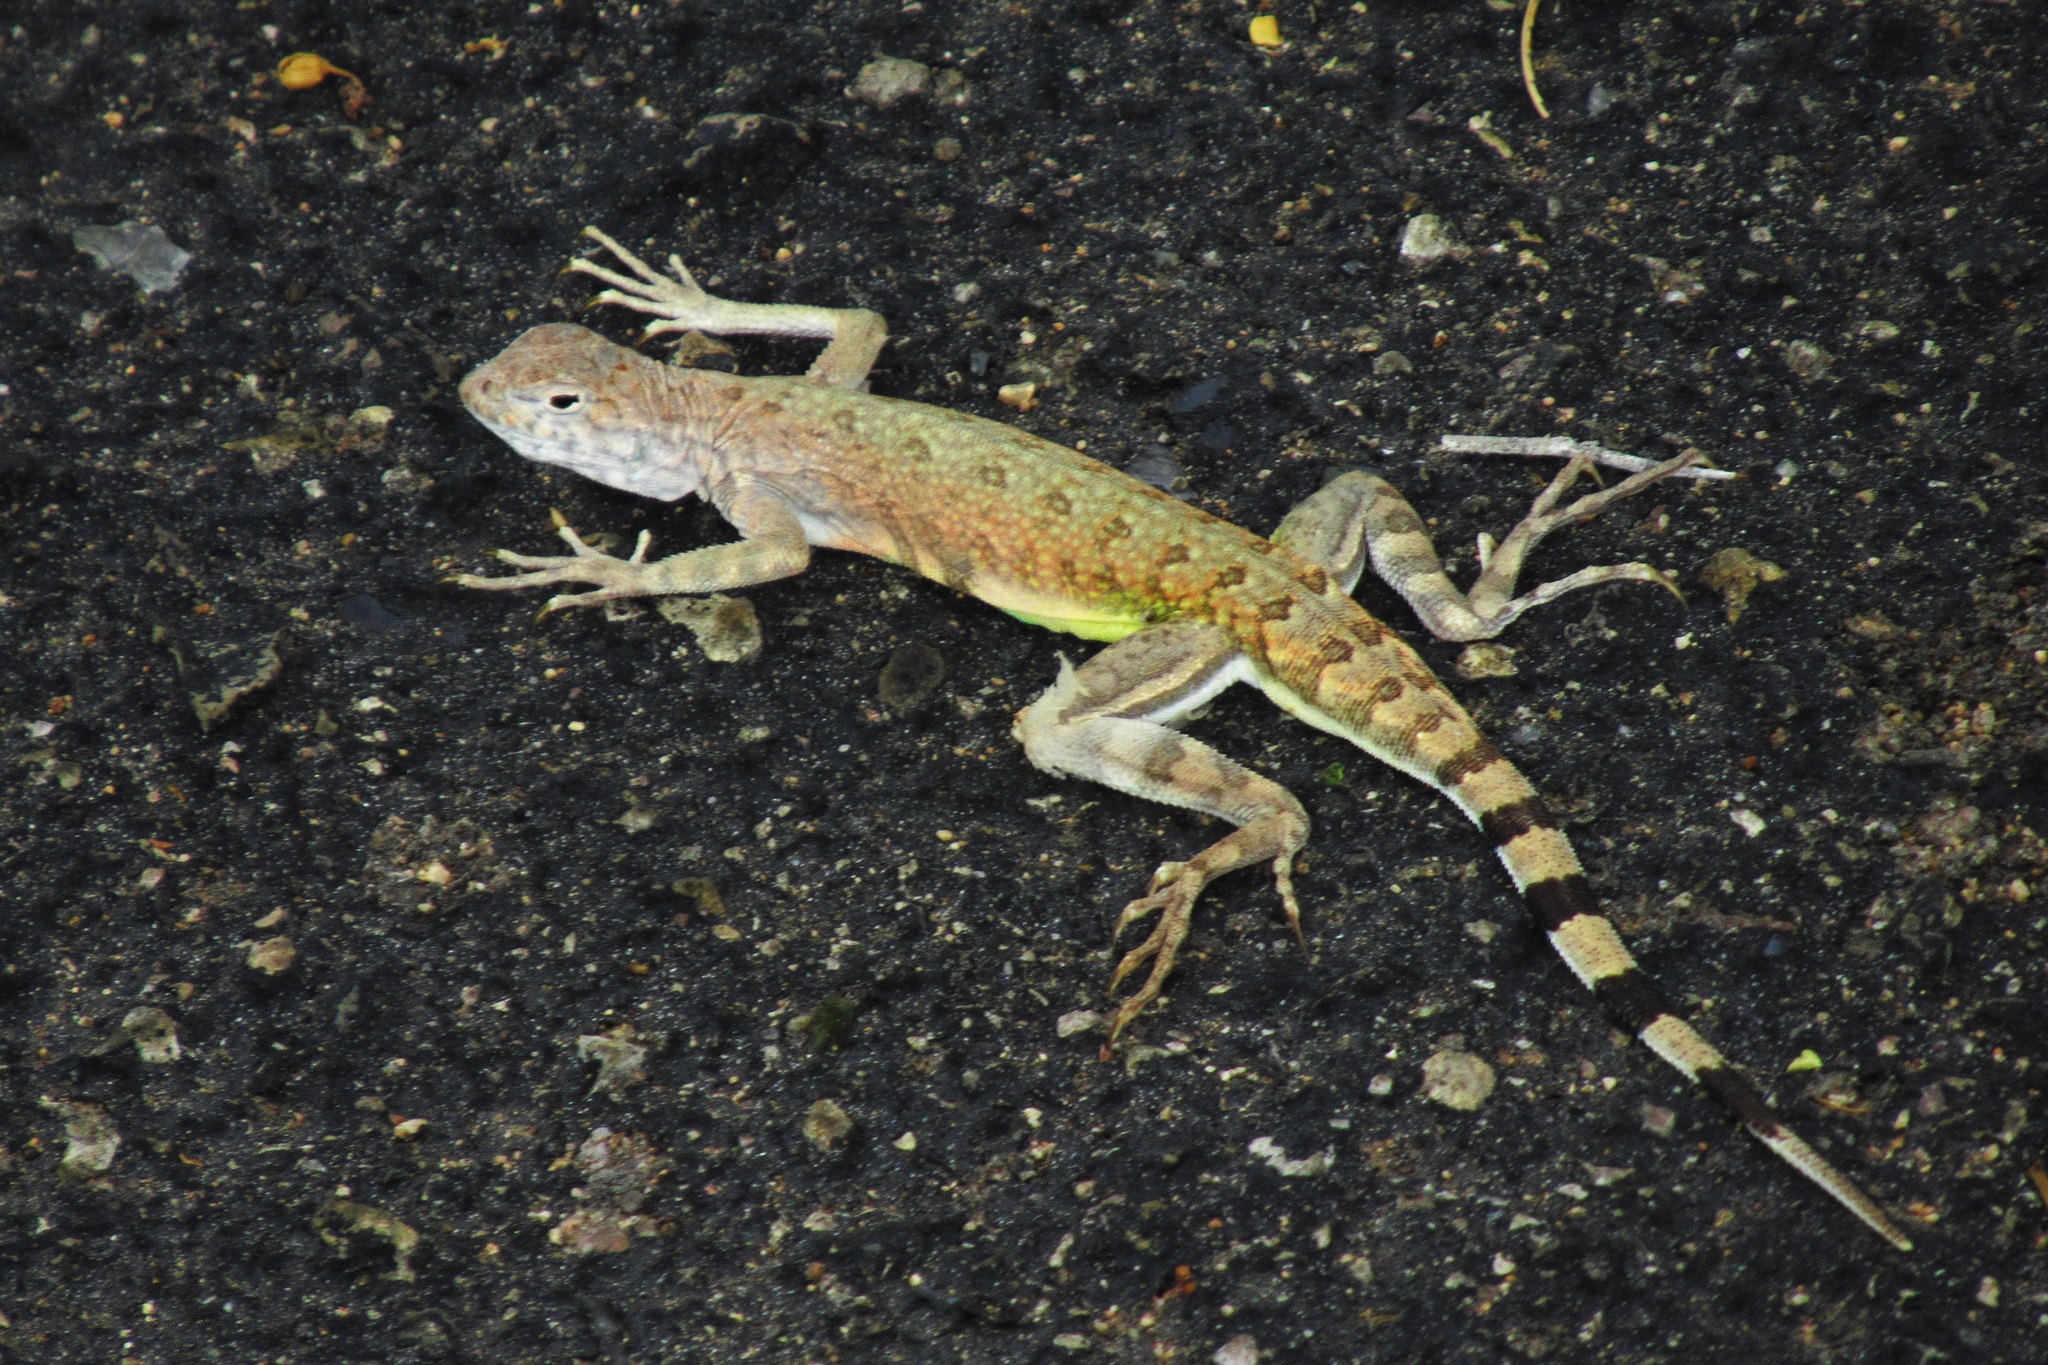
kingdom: Animalia
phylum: Chordata
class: Squamata
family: Phrynosomatidae
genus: Callisaurus
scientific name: Callisaurus draconoides
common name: Zebra-tailed lizard
